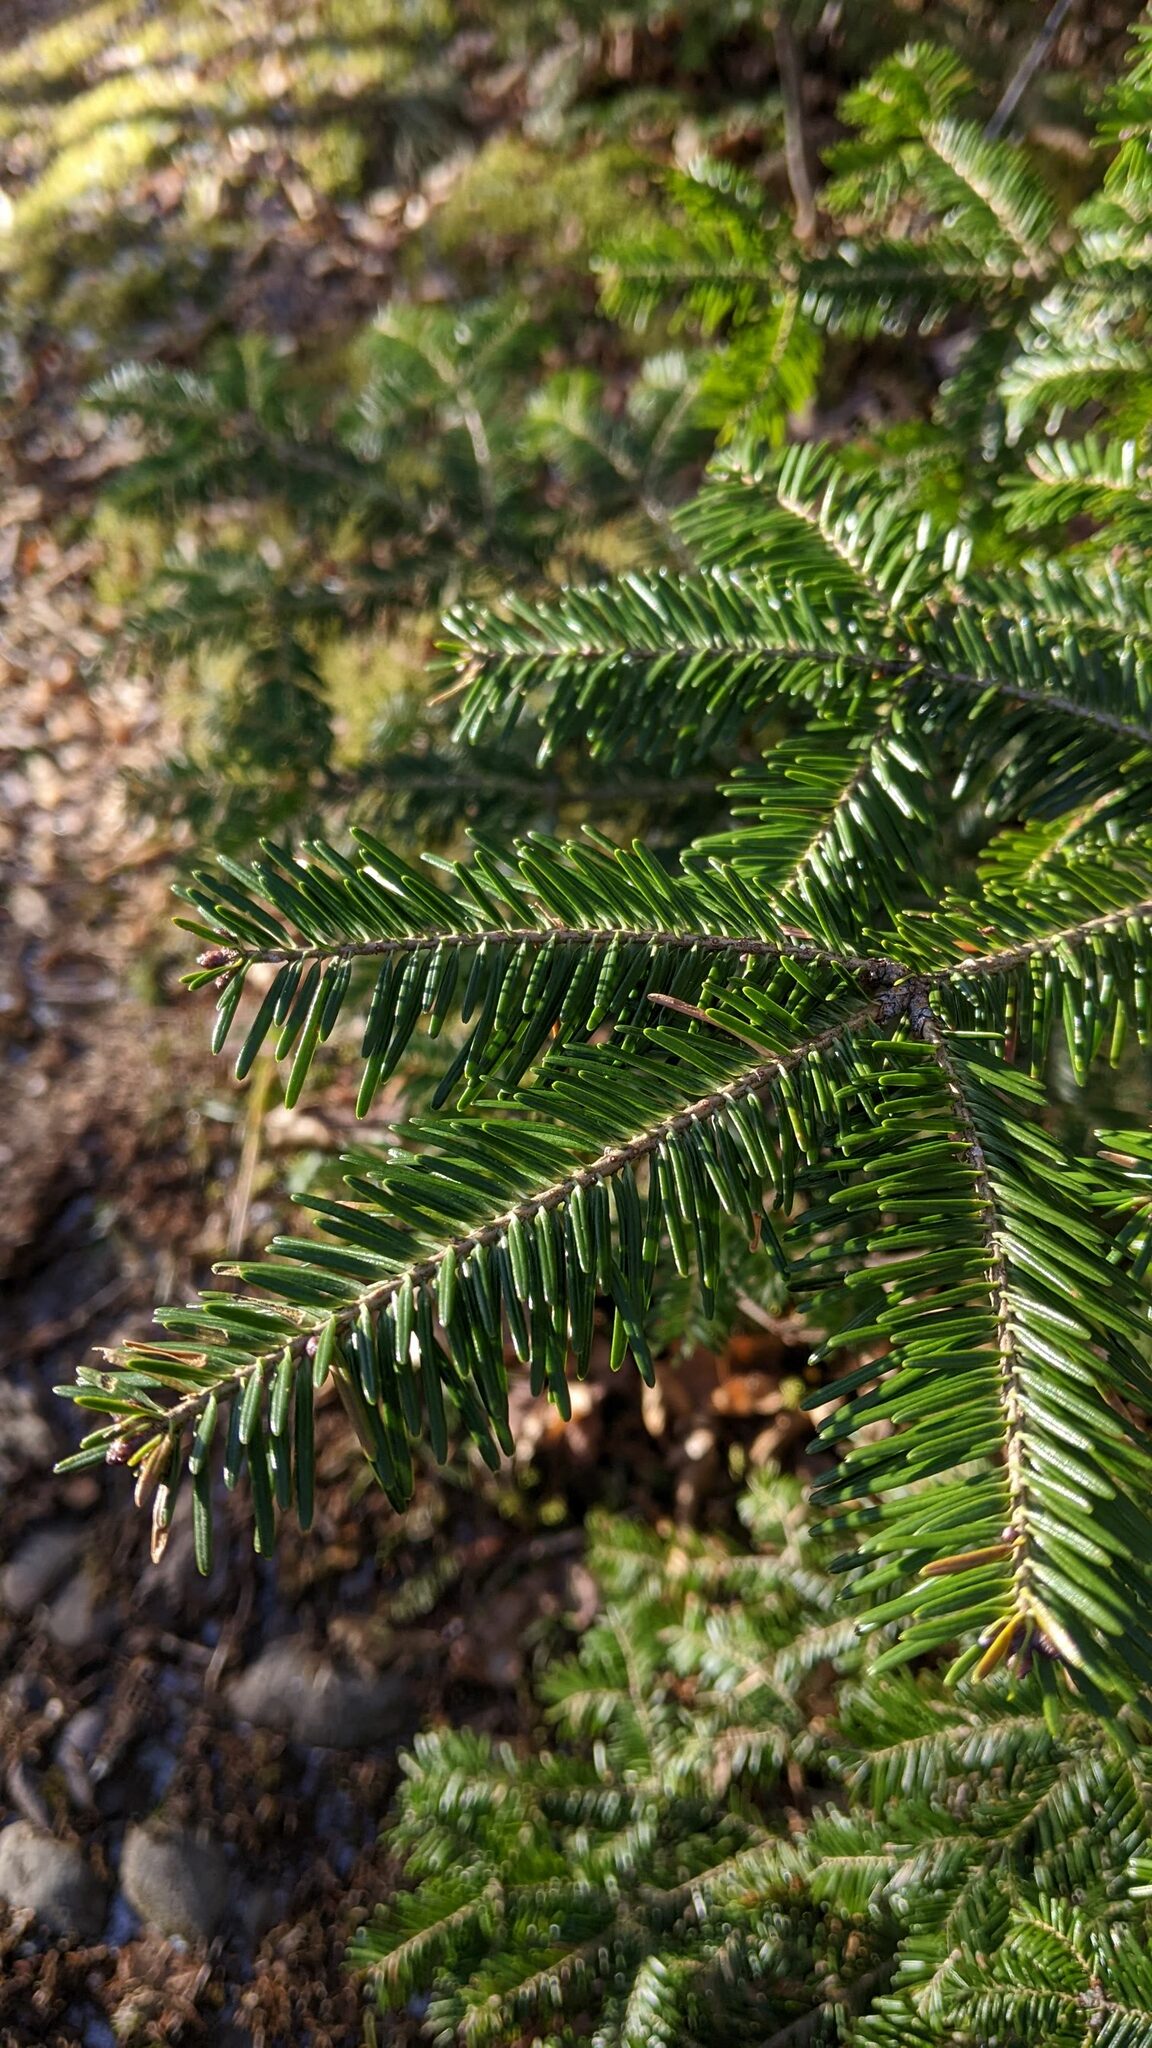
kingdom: Plantae
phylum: Tracheophyta
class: Pinopsida
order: Pinales
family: Pinaceae
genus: Abies
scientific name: Abies balsamea
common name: Balsam fir
